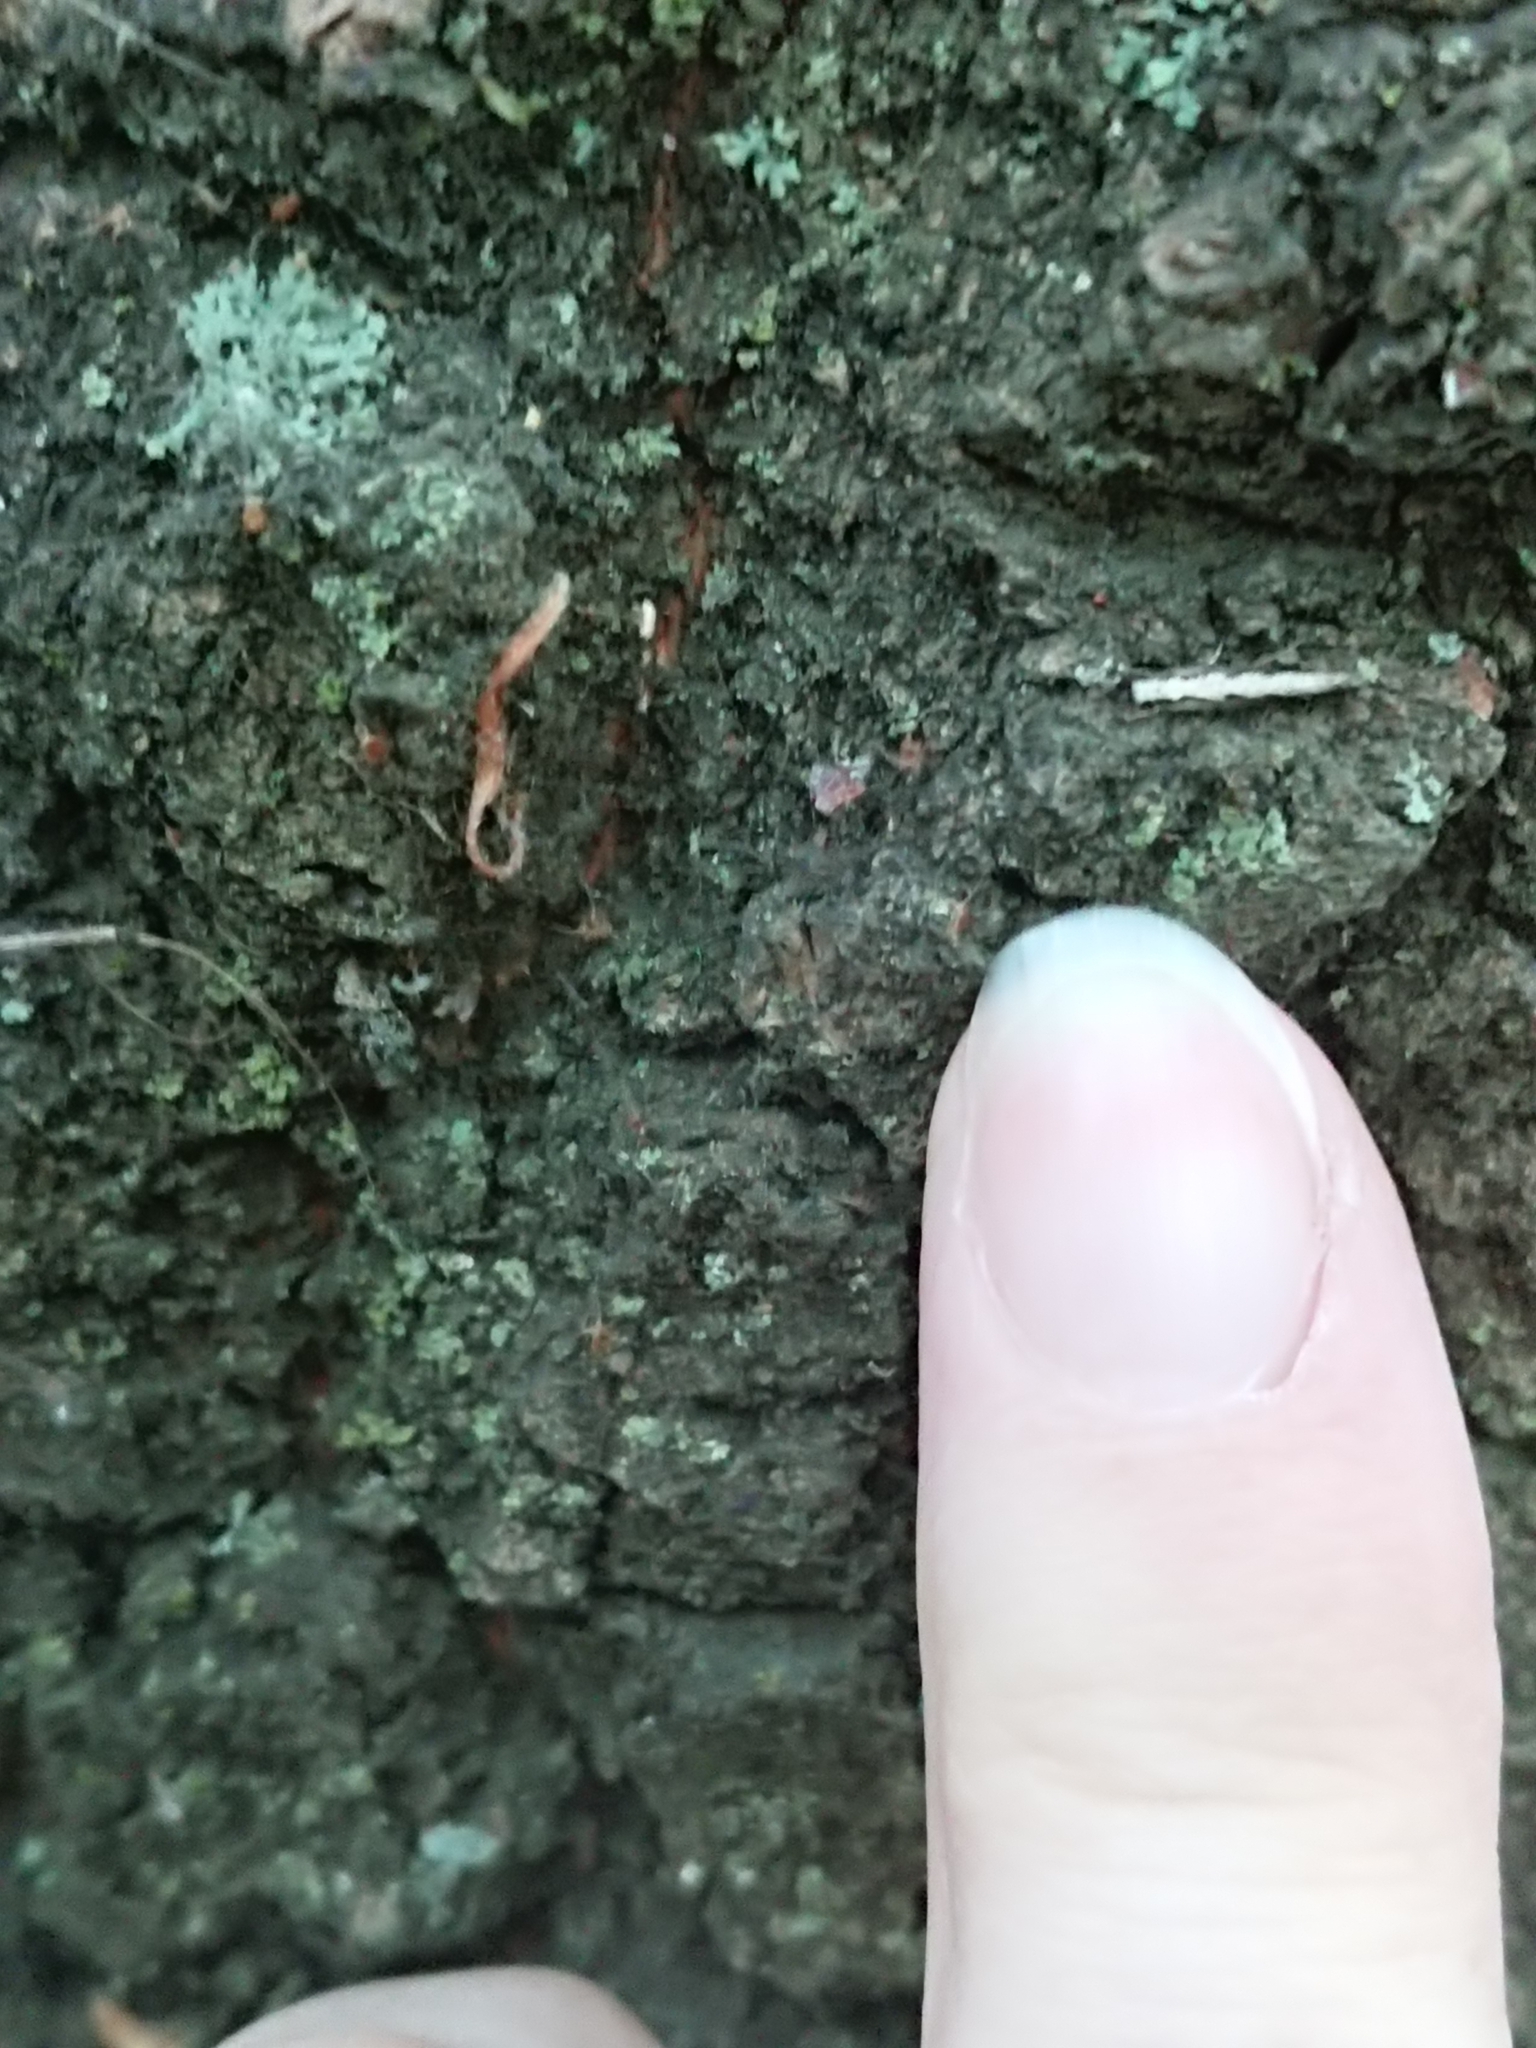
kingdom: Animalia
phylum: Arthropoda
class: Insecta
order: Lepidoptera
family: Tineidae
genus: Erechthias
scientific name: Erechthias fulguritella
